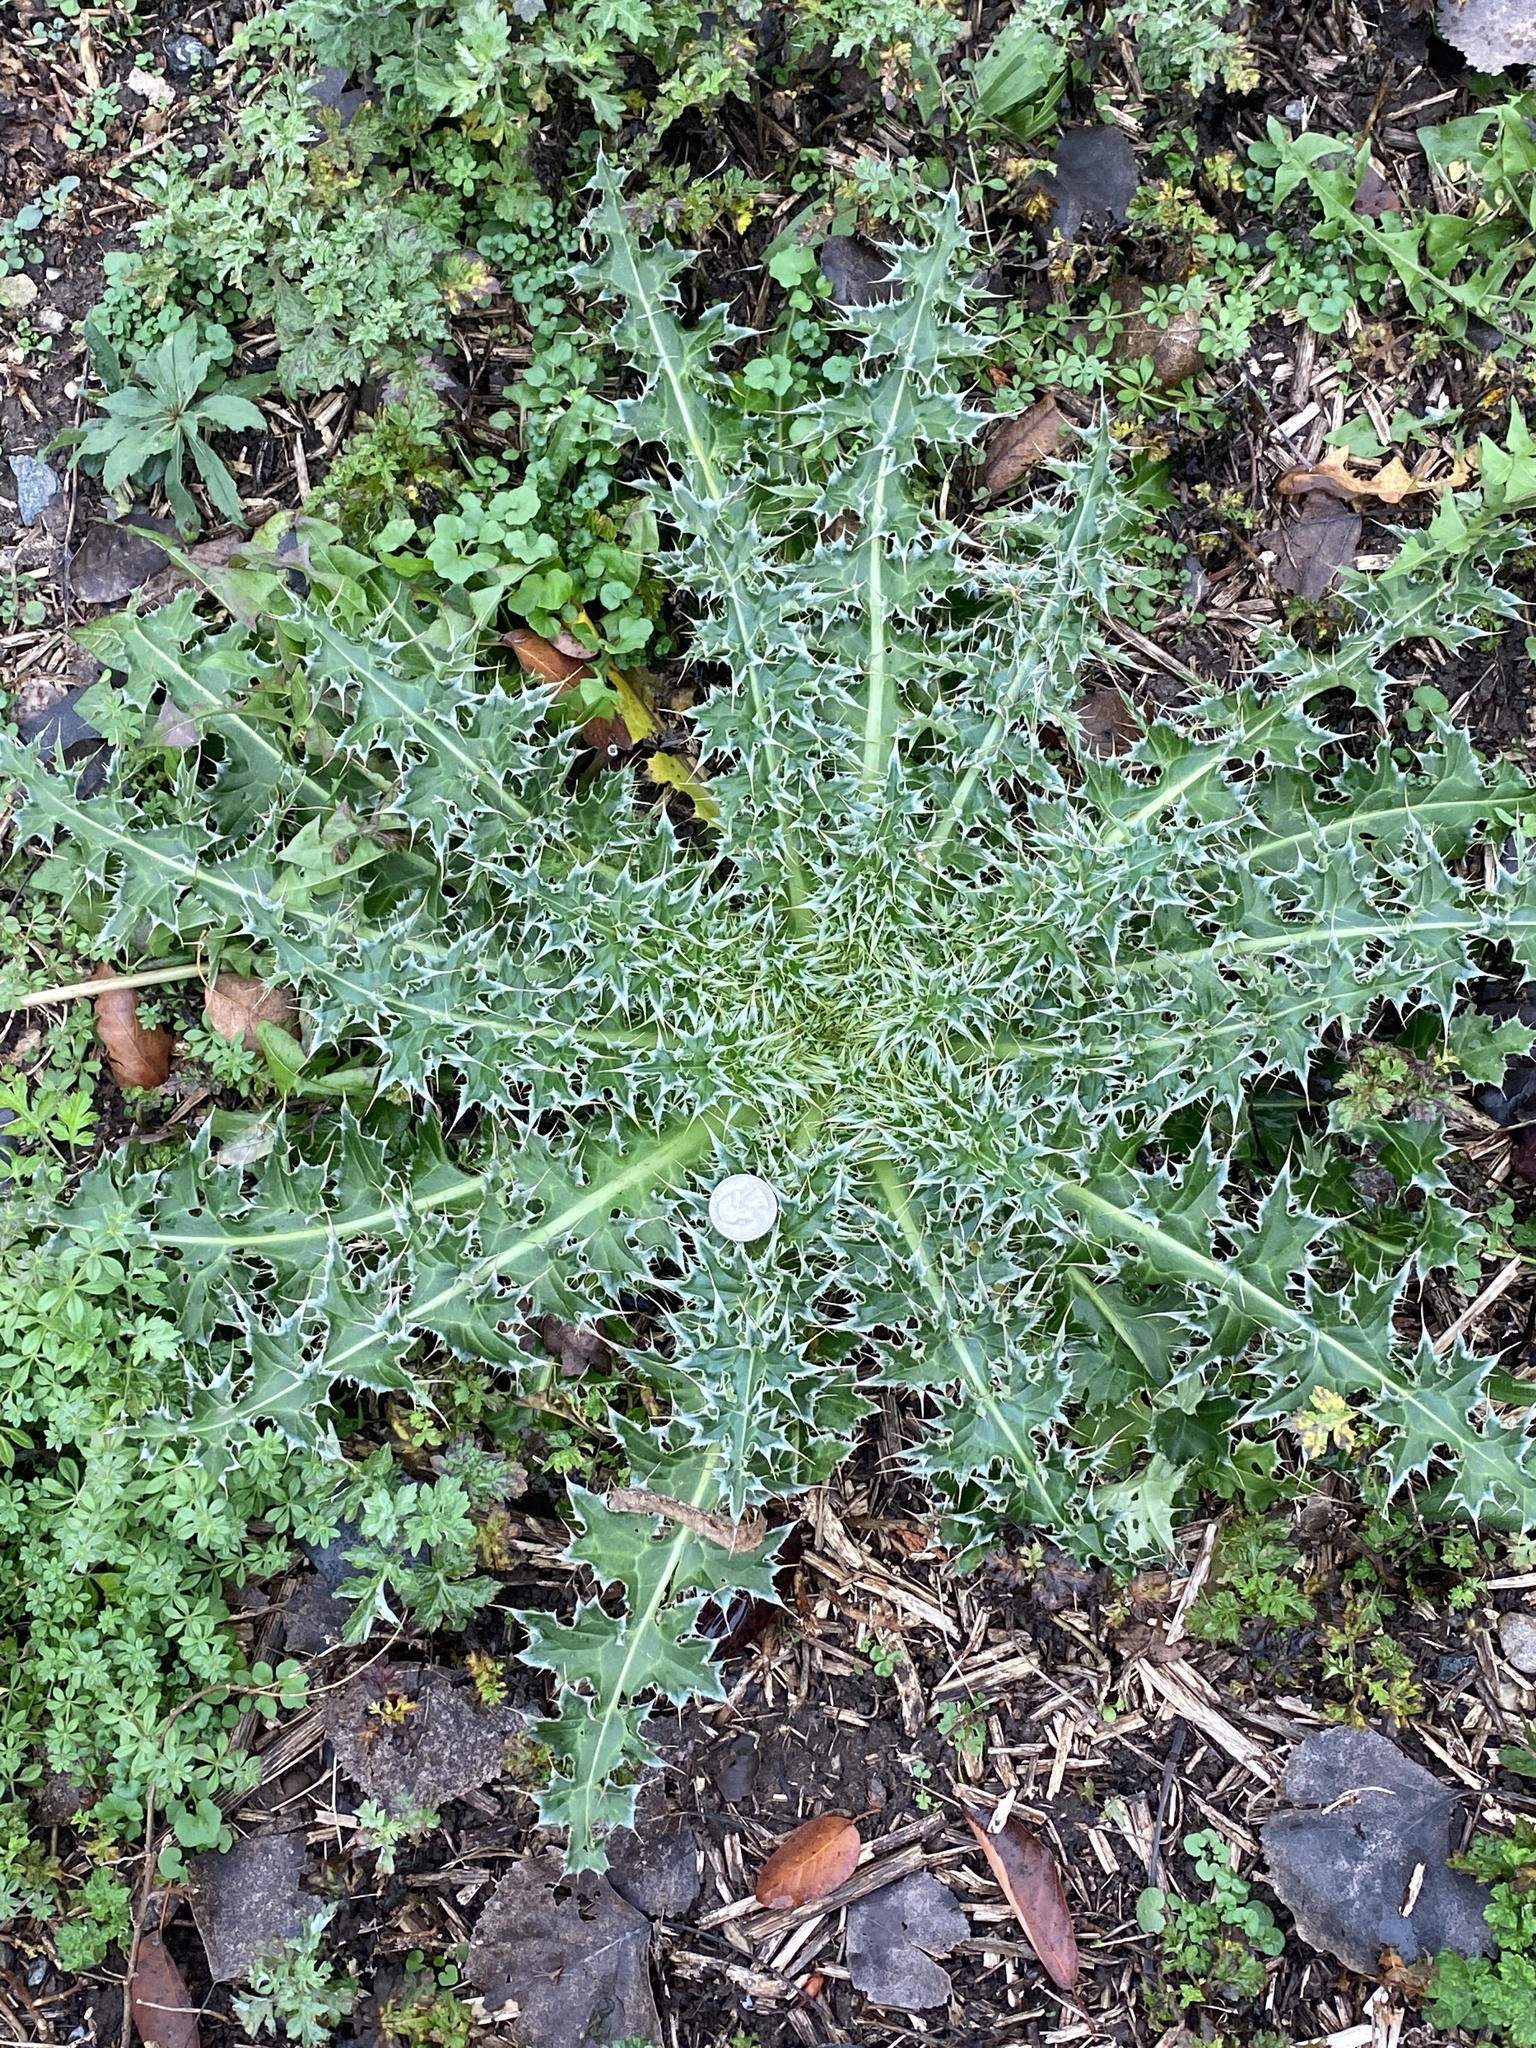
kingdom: Plantae
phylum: Tracheophyta
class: Magnoliopsida
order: Asterales
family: Asteraceae
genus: Carduus
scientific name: Carduus nutans
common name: Musk thistle
